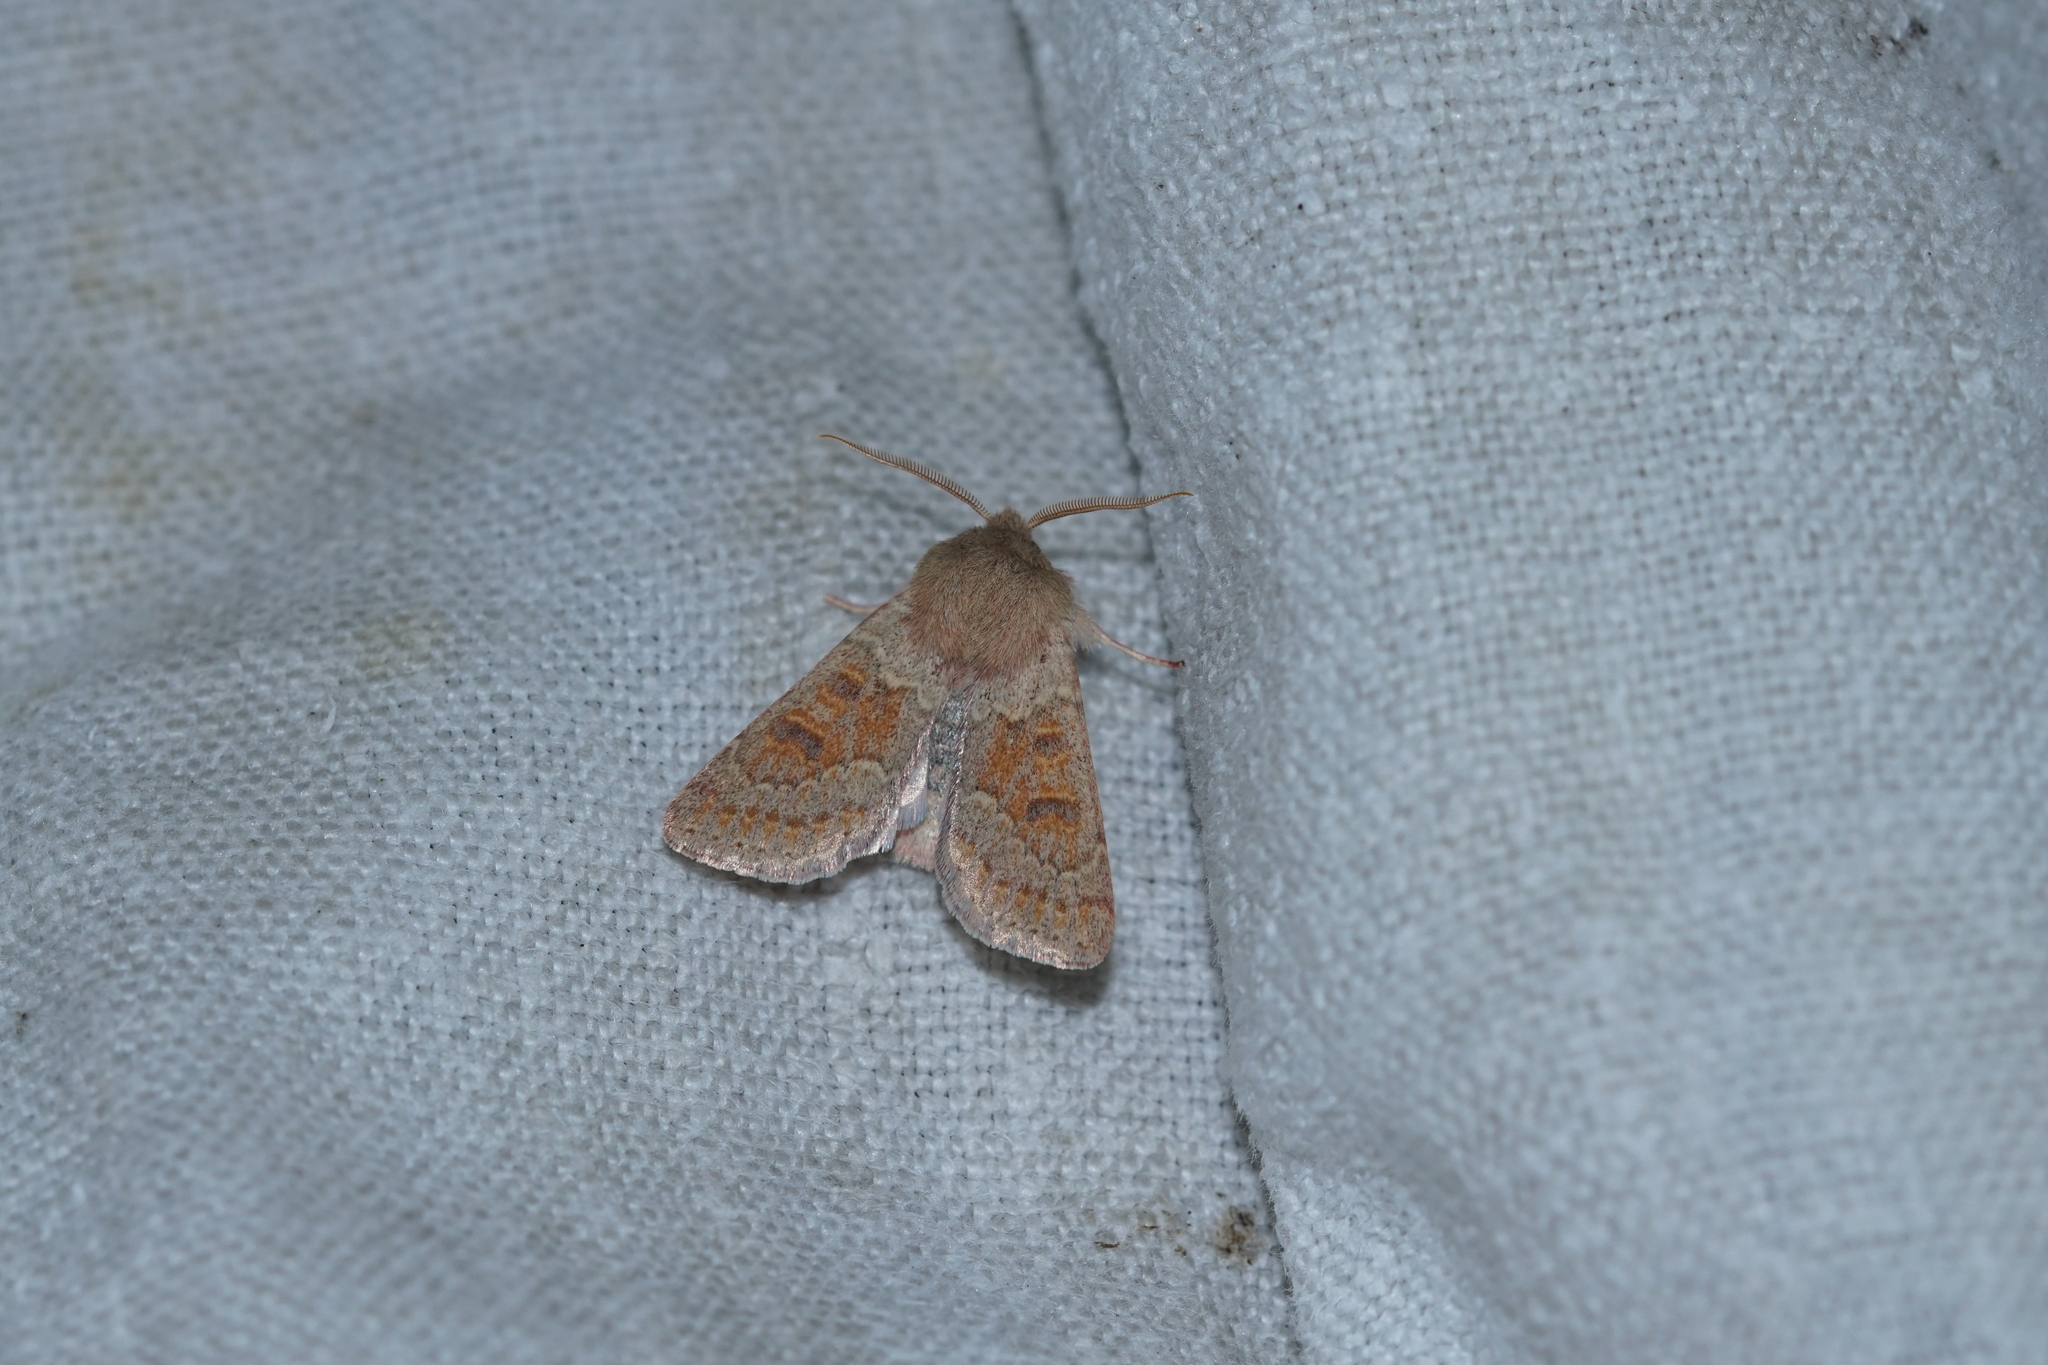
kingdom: Animalia
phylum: Arthropoda
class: Insecta
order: Lepidoptera
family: Noctuidae
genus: Orthosia
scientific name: Orthosia miniosa
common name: Blossom underwing
